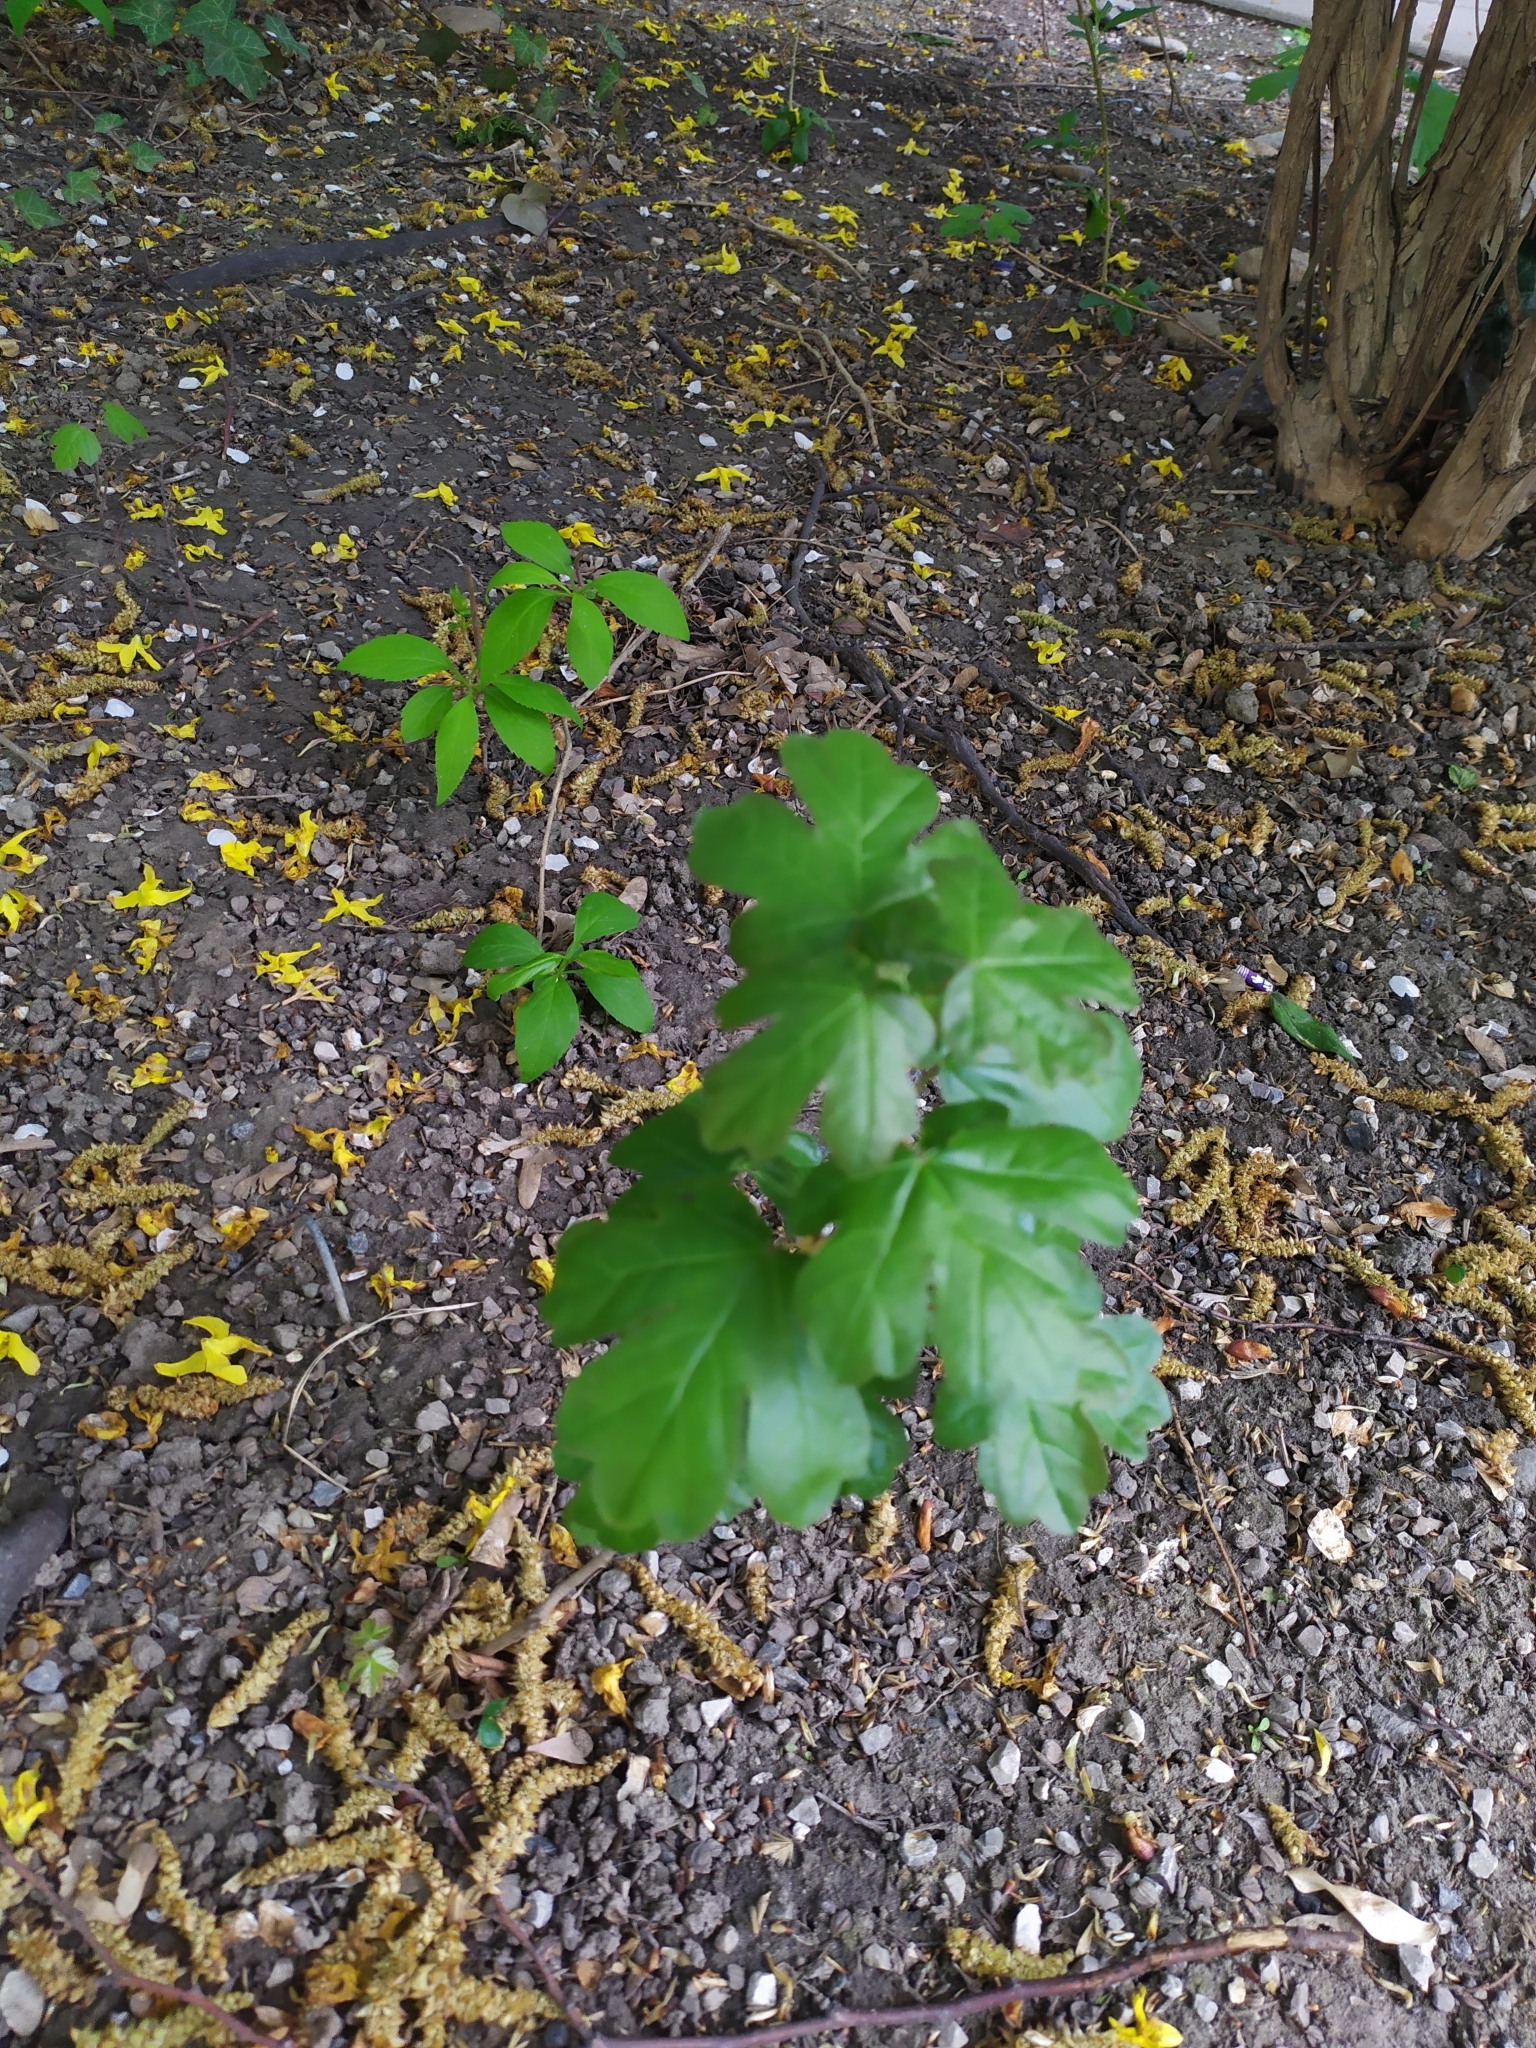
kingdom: Plantae
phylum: Tracheophyta
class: Magnoliopsida
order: Sapindales
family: Sapindaceae
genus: Acer
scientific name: Acer campestre
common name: Field maple
